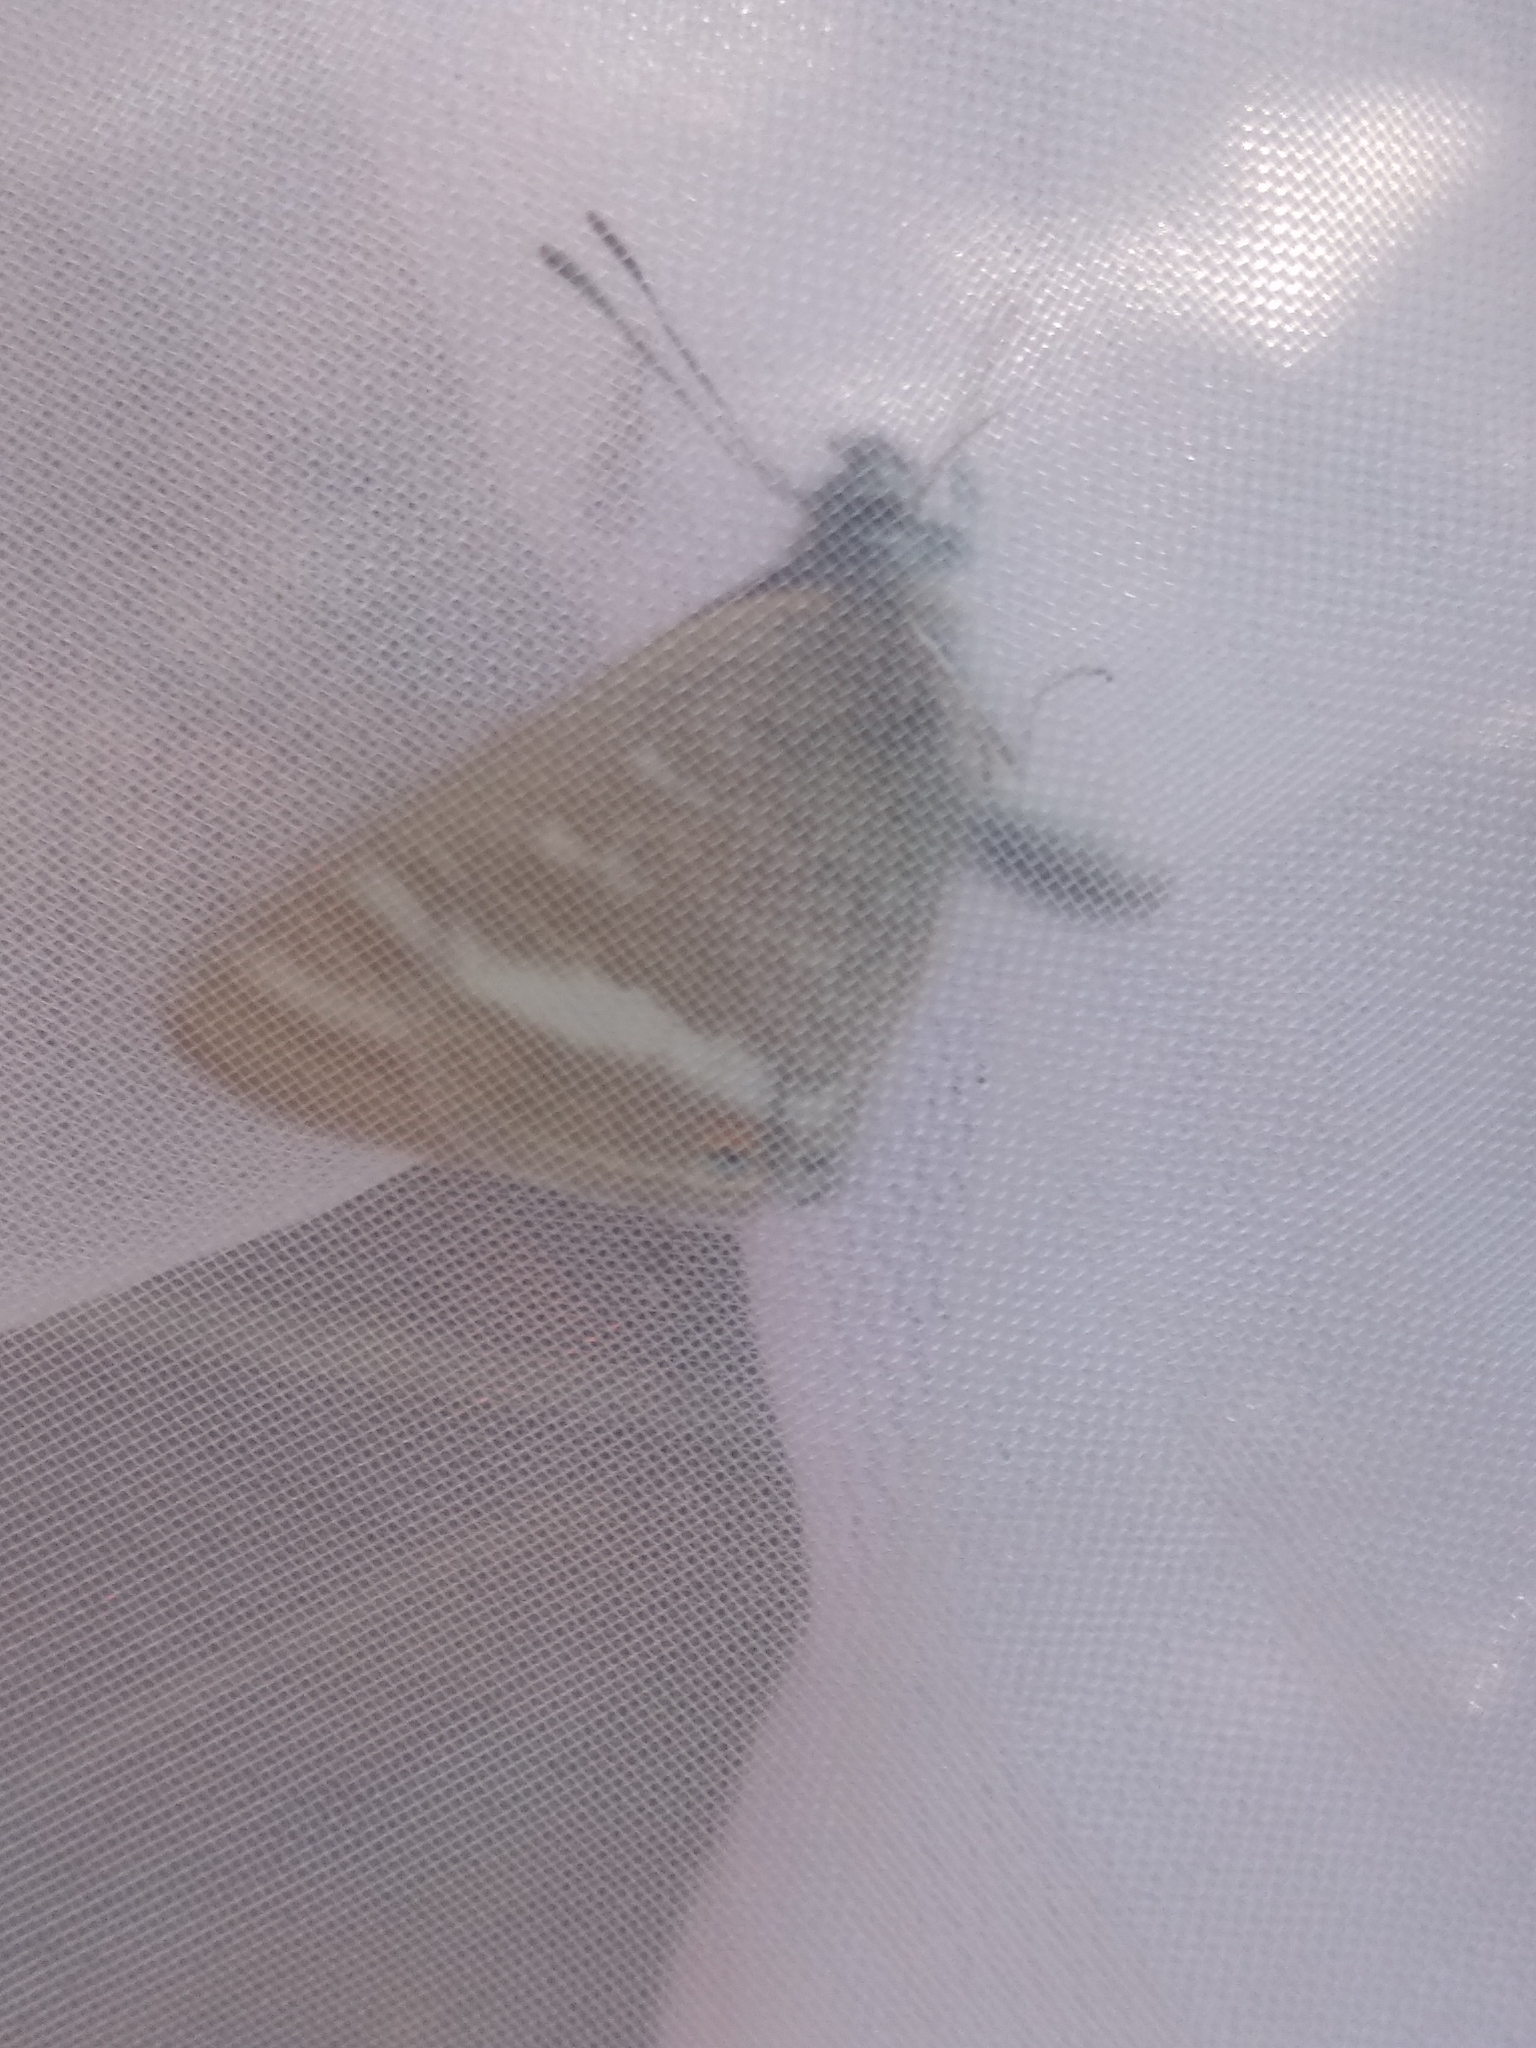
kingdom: Animalia
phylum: Arthropoda
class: Insecta
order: Lepidoptera
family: Lycaenidae
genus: Lampides
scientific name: Lampides boeticus
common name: Long-tailed blue
